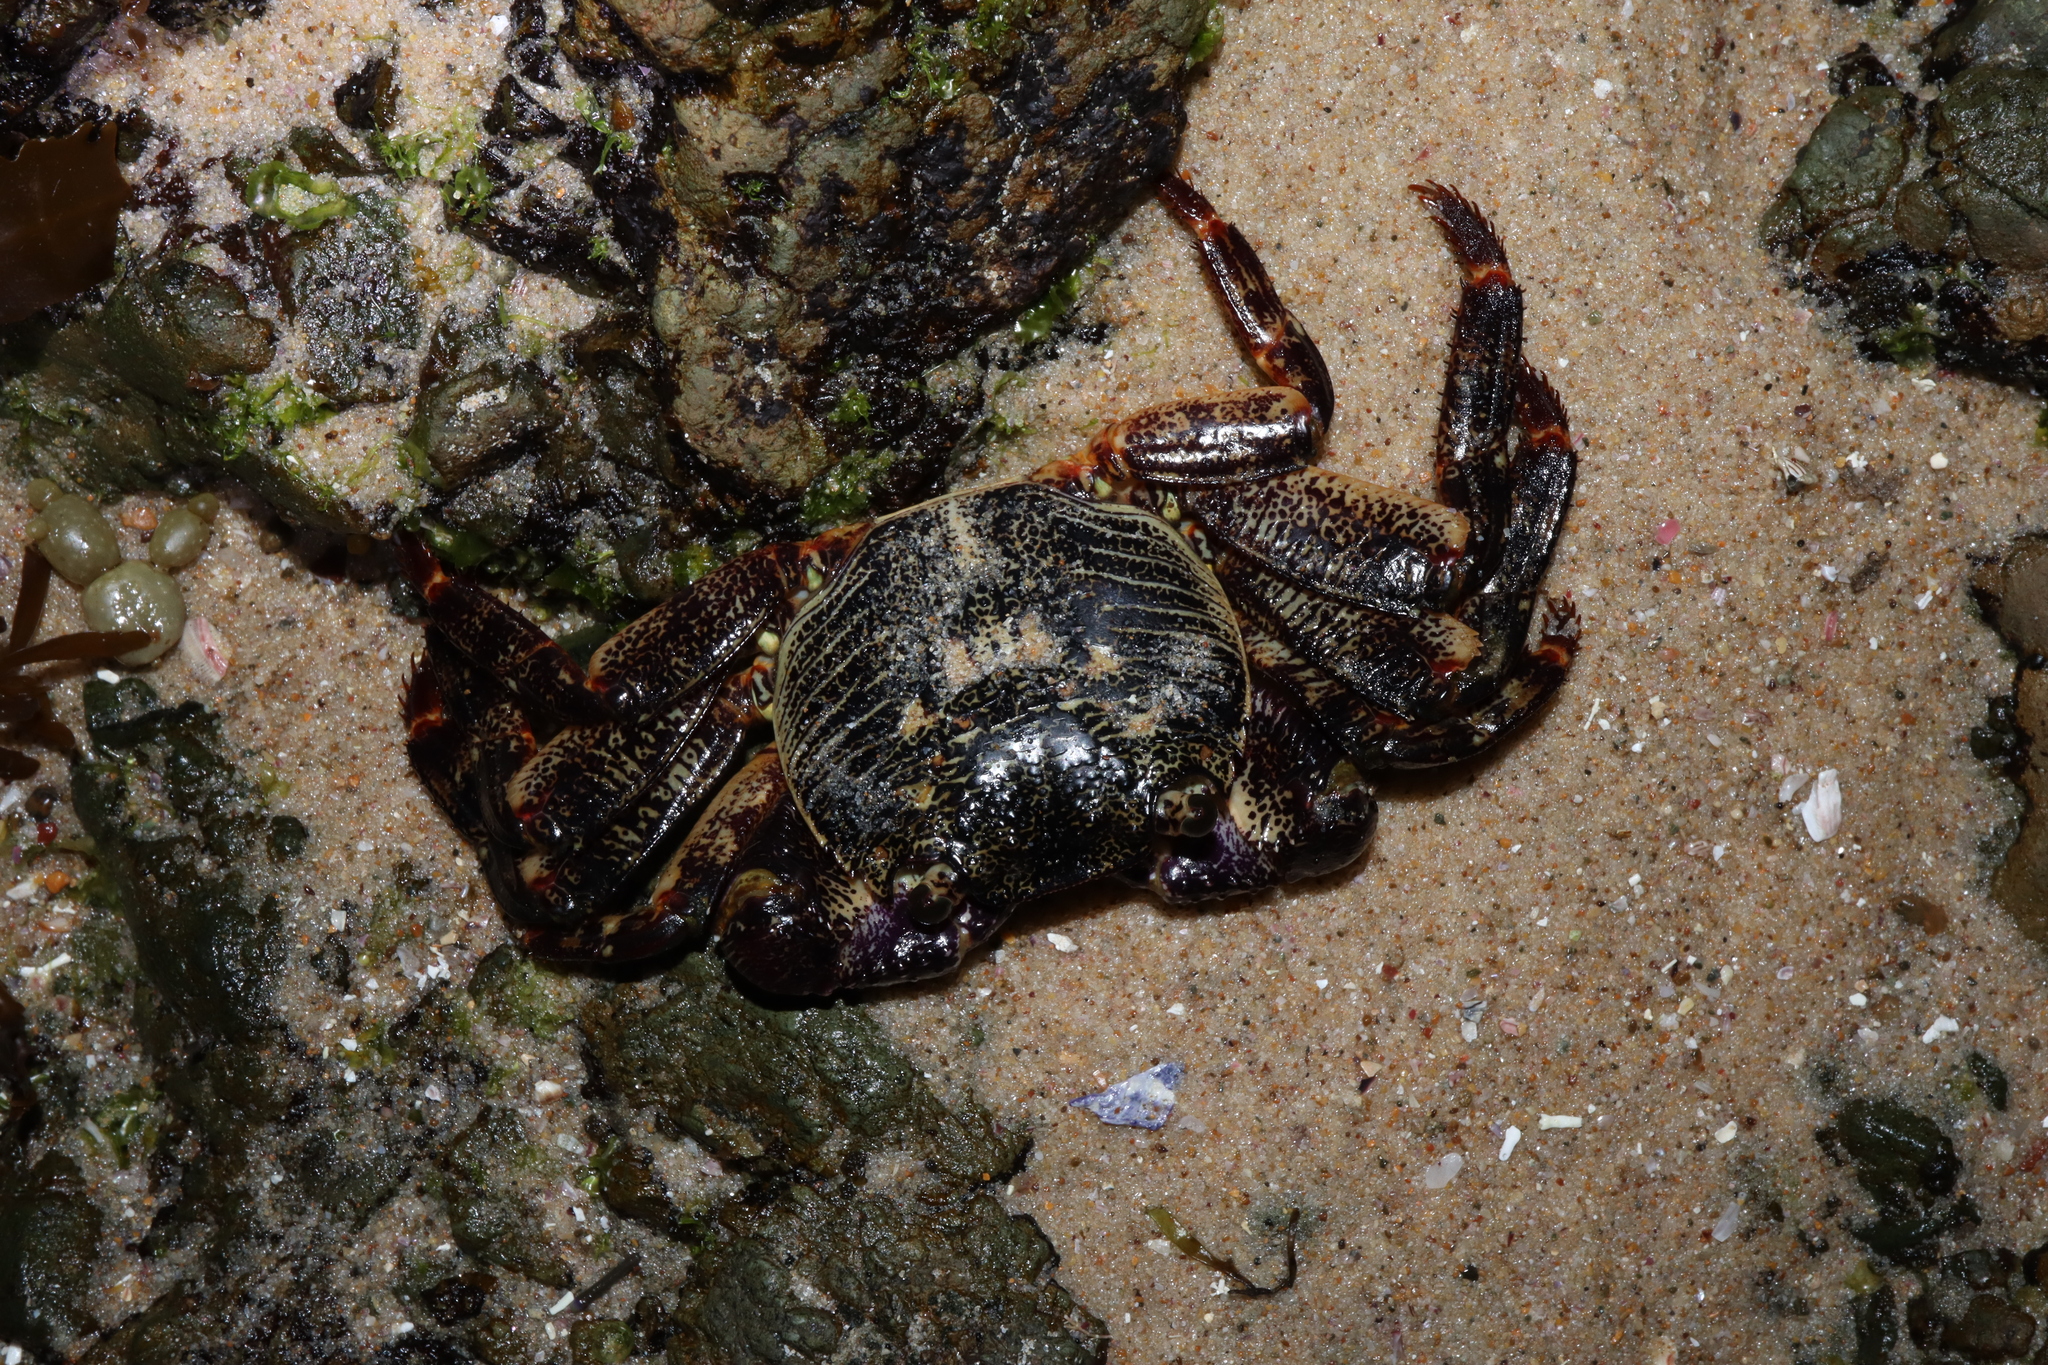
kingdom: Animalia
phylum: Arthropoda
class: Malacostraca
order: Decapoda
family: Grapsidae
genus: Leptograpsus
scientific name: Leptograpsus variegatus
